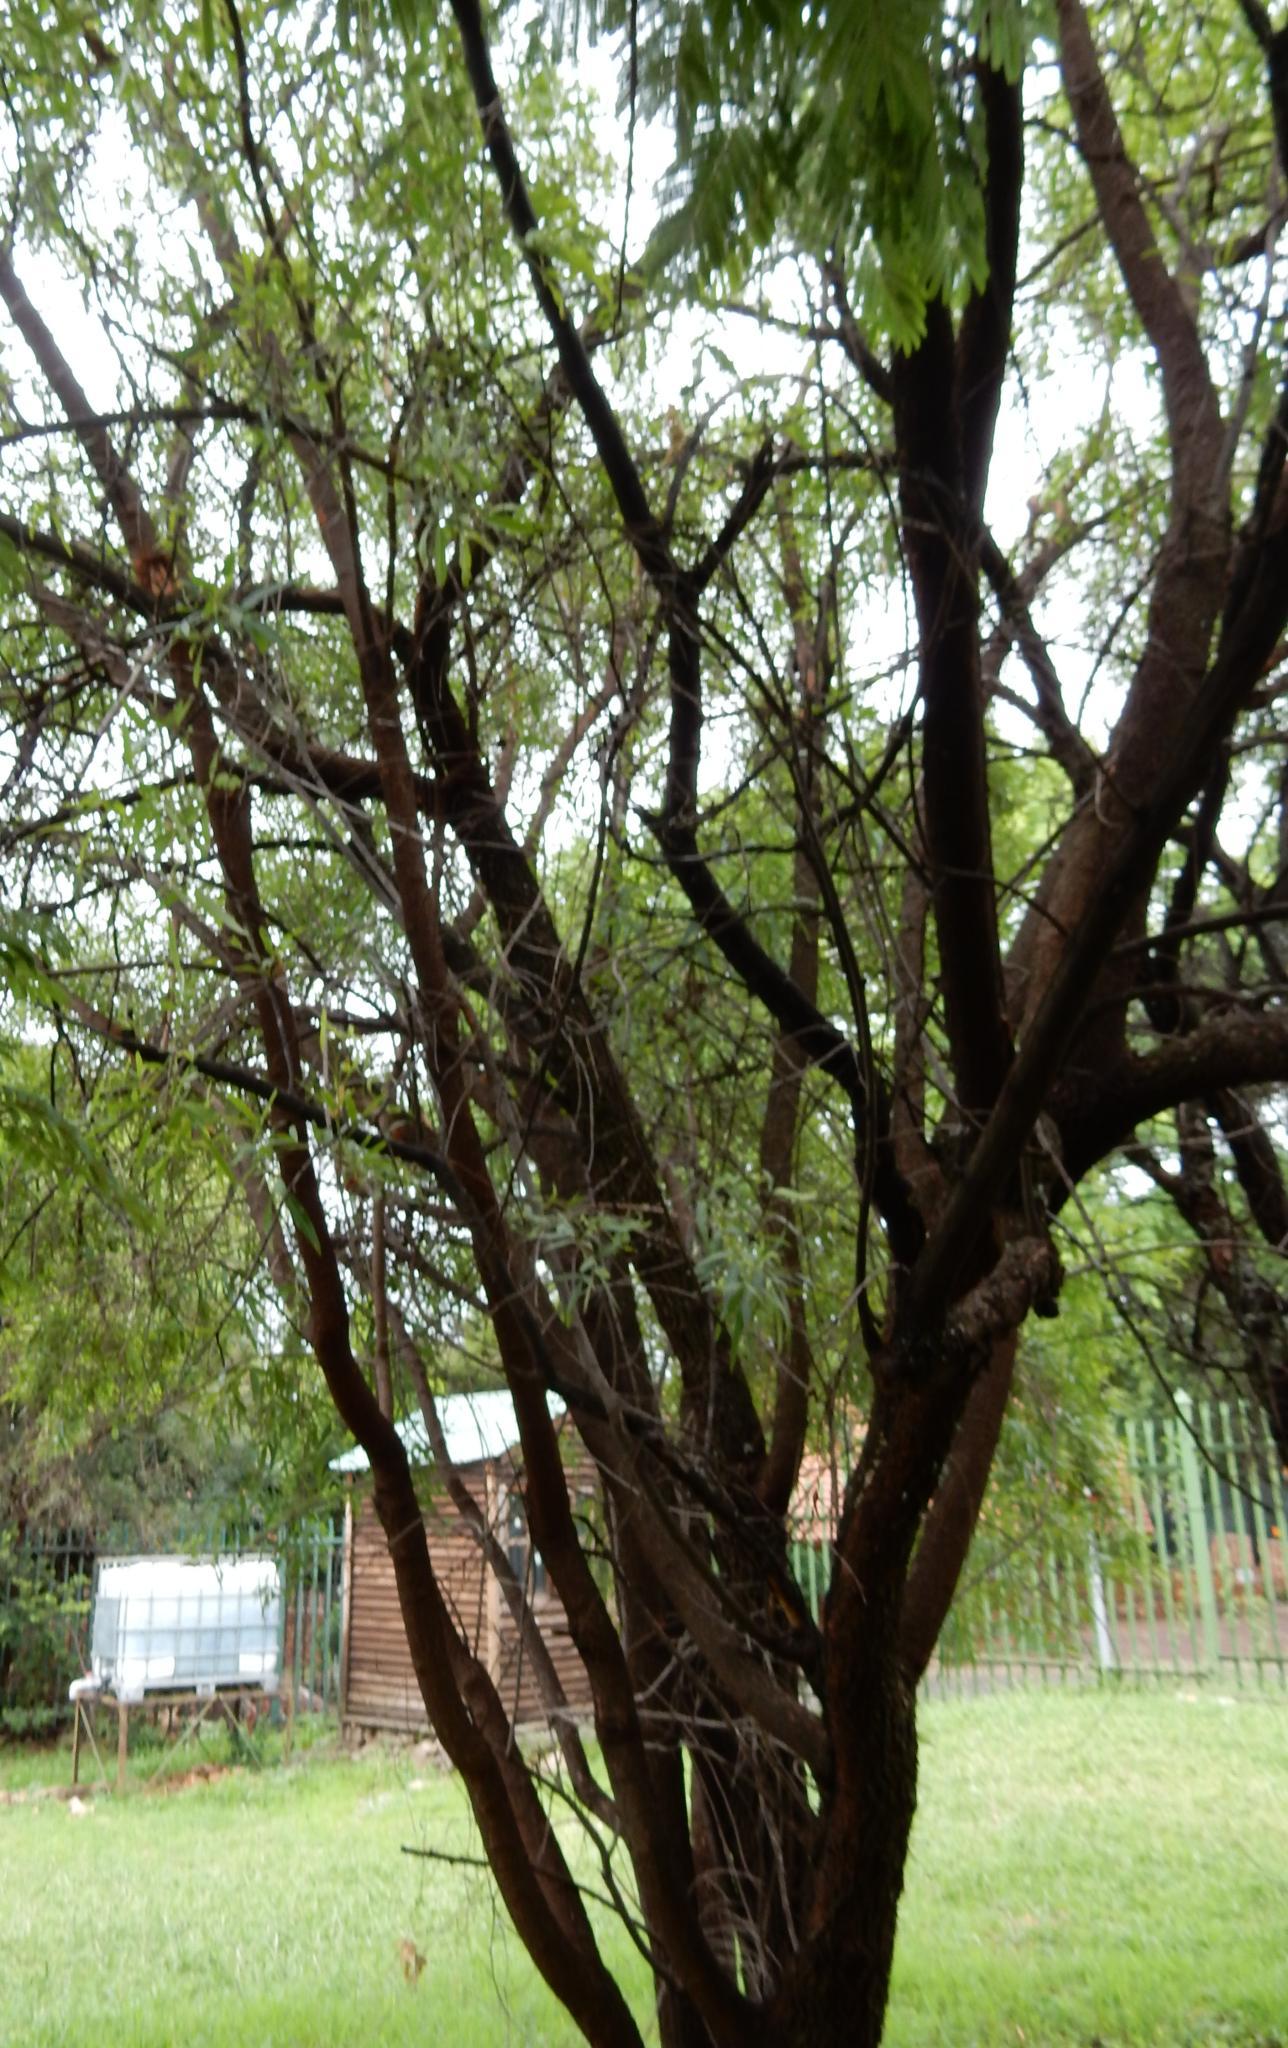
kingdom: Plantae
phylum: Tracheophyta
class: Magnoliopsida
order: Sapindales
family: Anacardiaceae
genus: Searsia
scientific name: Searsia lancea
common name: Cashew
